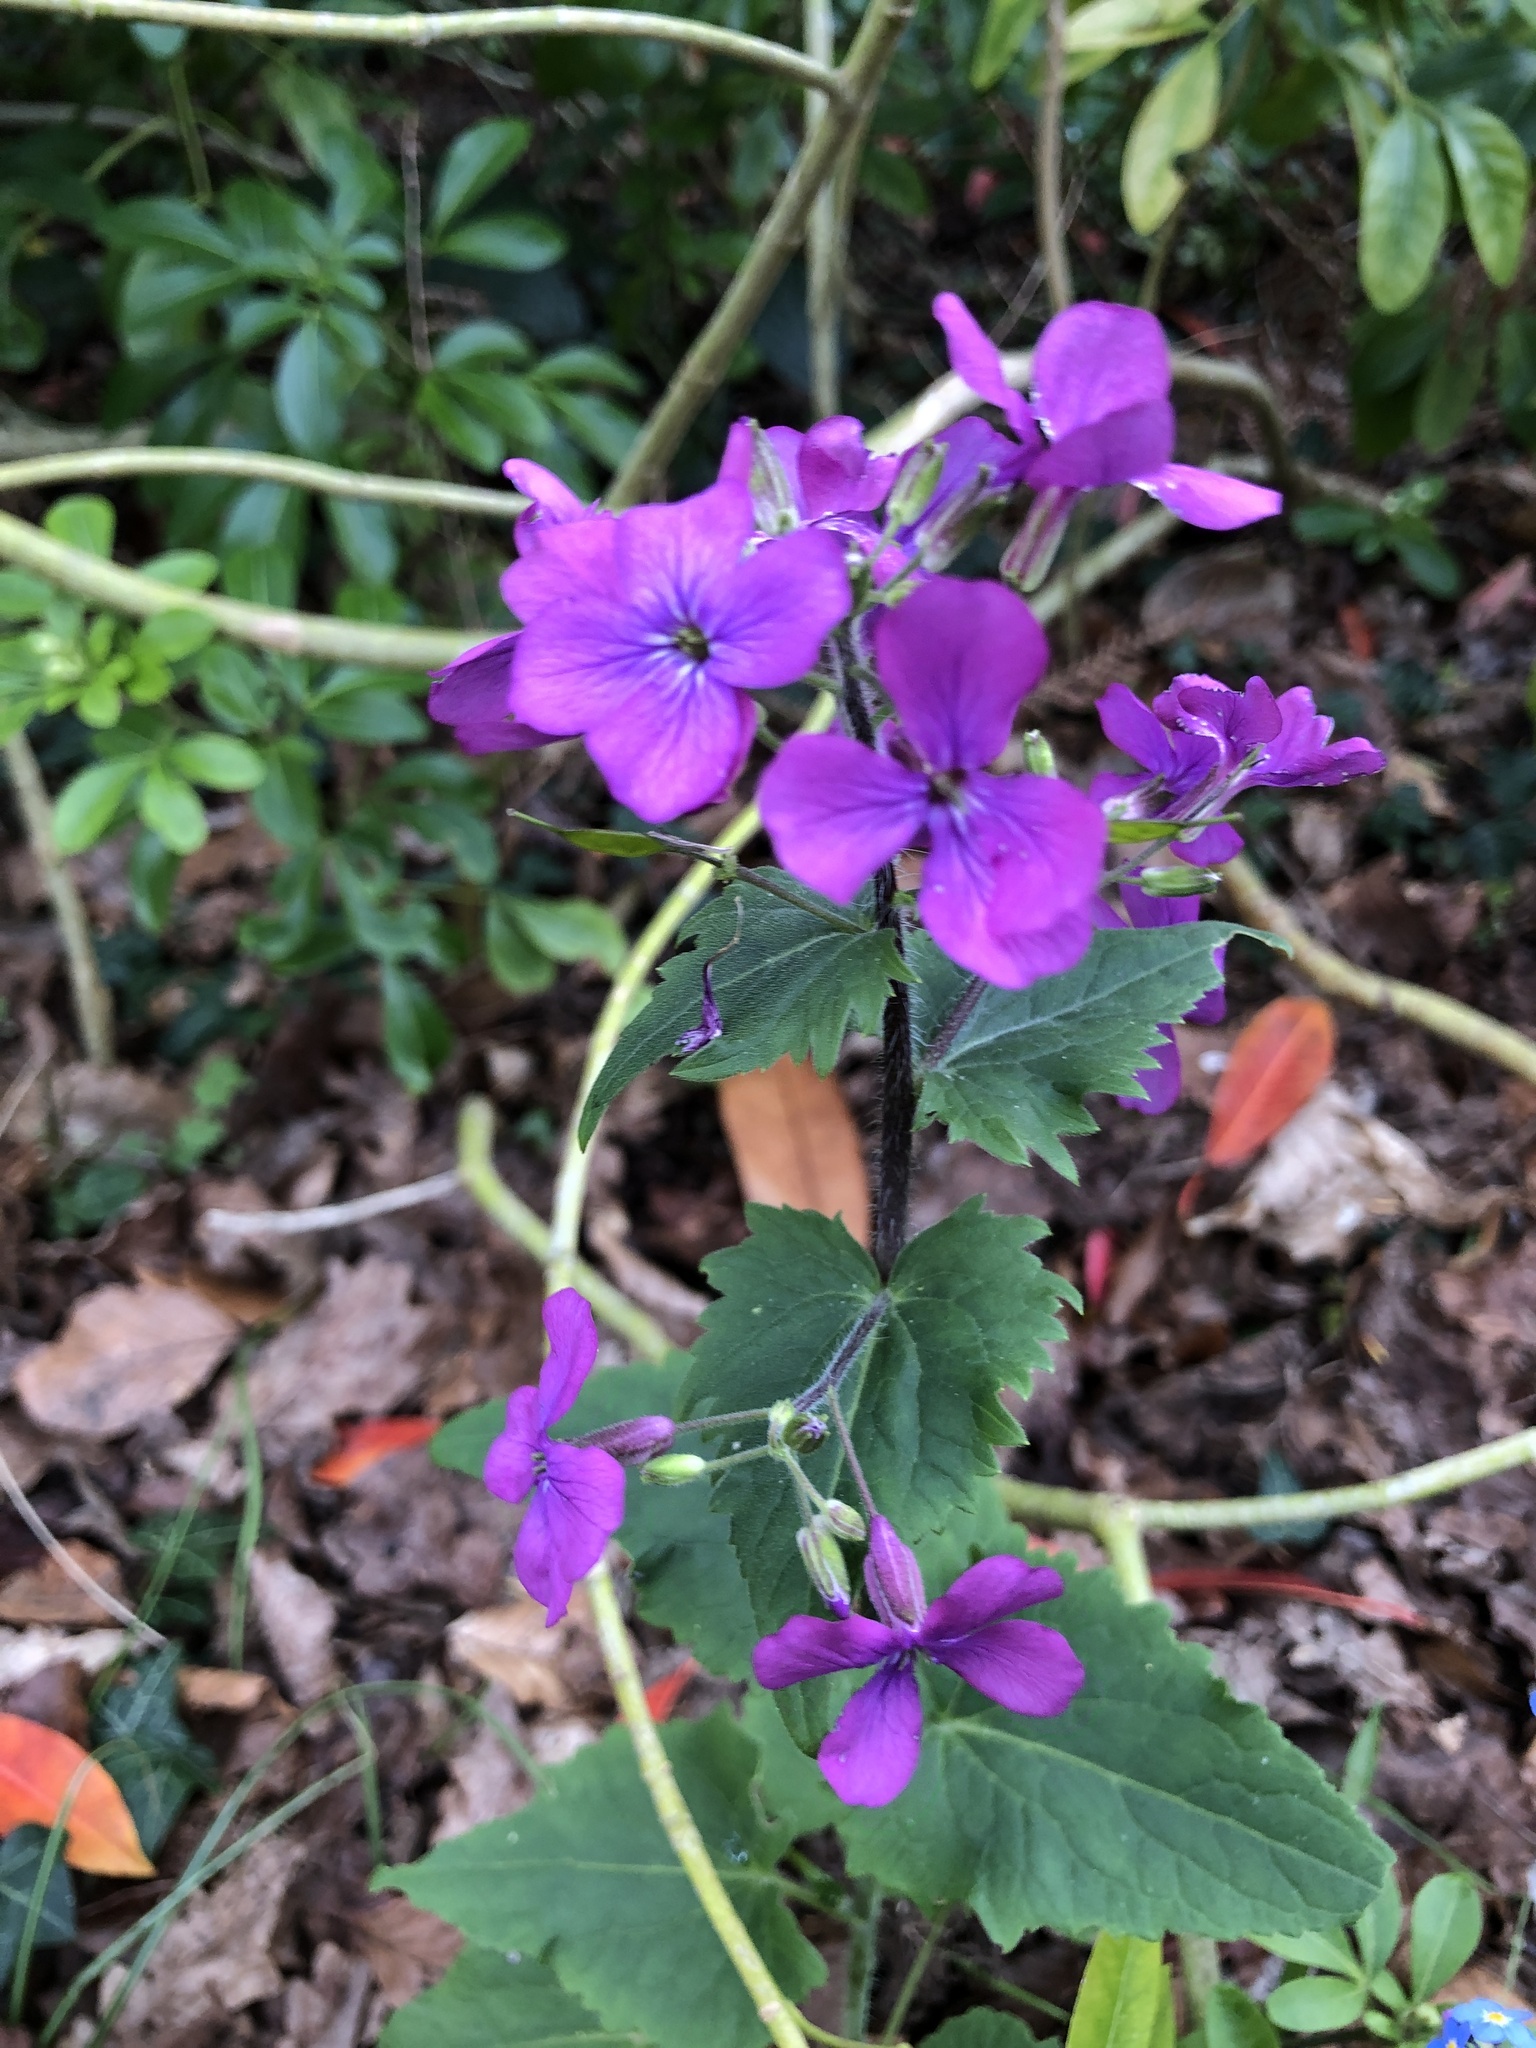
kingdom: Plantae
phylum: Tracheophyta
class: Magnoliopsida
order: Brassicales
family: Brassicaceae
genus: Lunaria
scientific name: Lunaria annua
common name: Honesty
